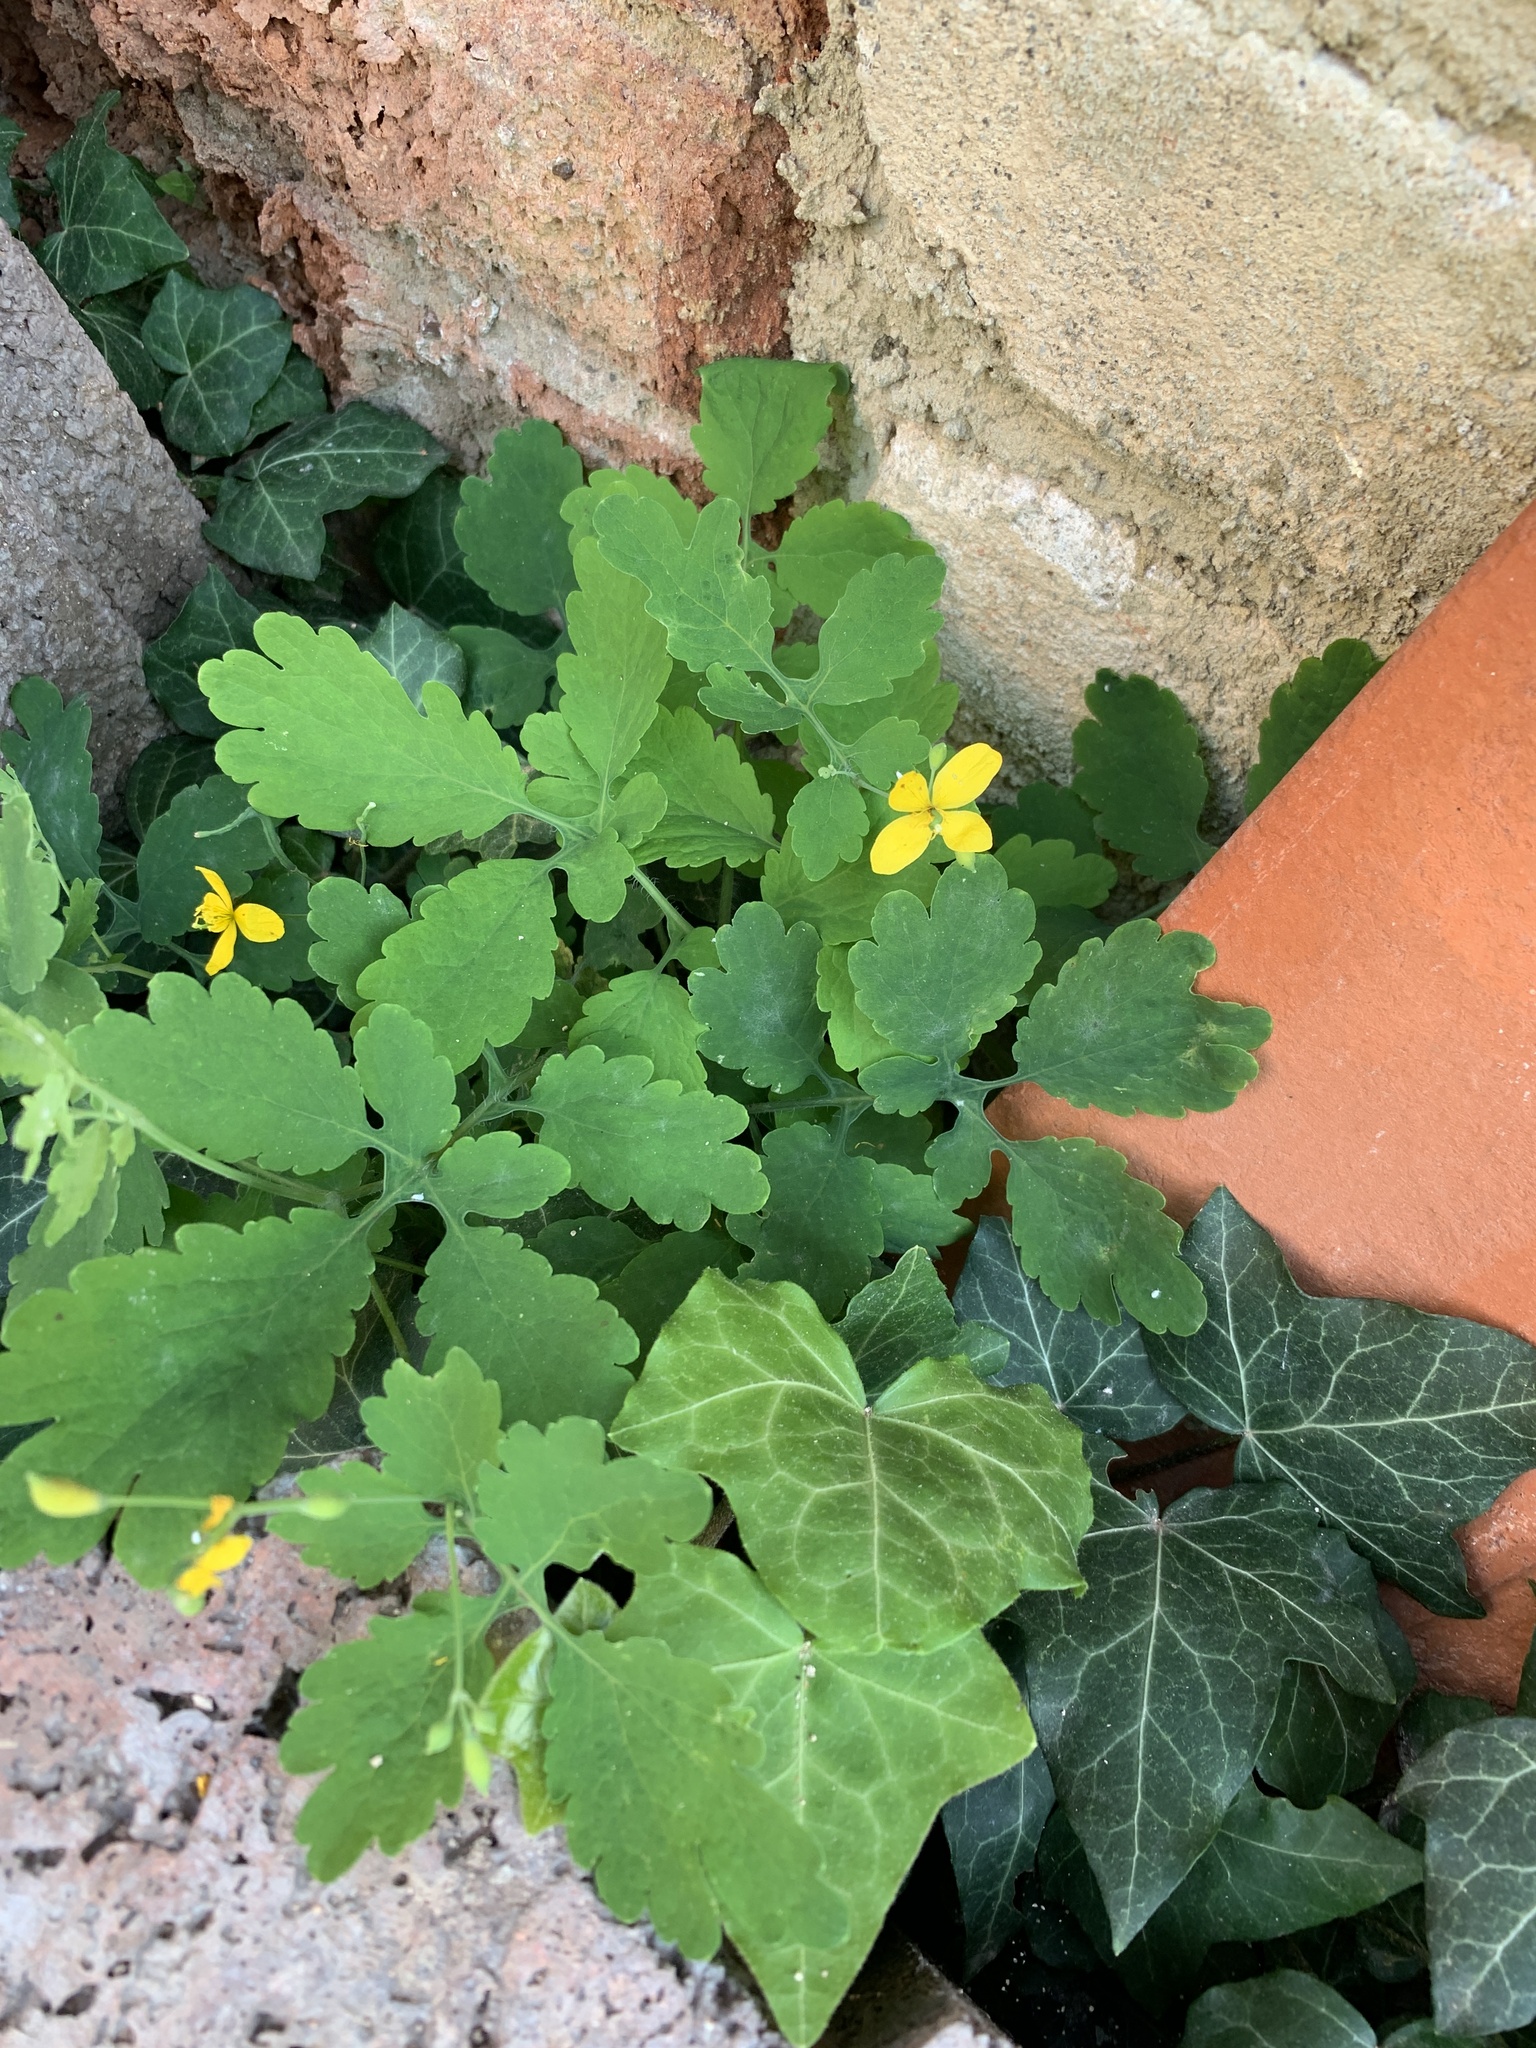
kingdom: Plantae
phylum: Tracheophyta
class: Magnoliopsida
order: Ranunculales
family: Papaveraceae
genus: Chelidonium
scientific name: Chelidonium majus
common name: Greater celandine
